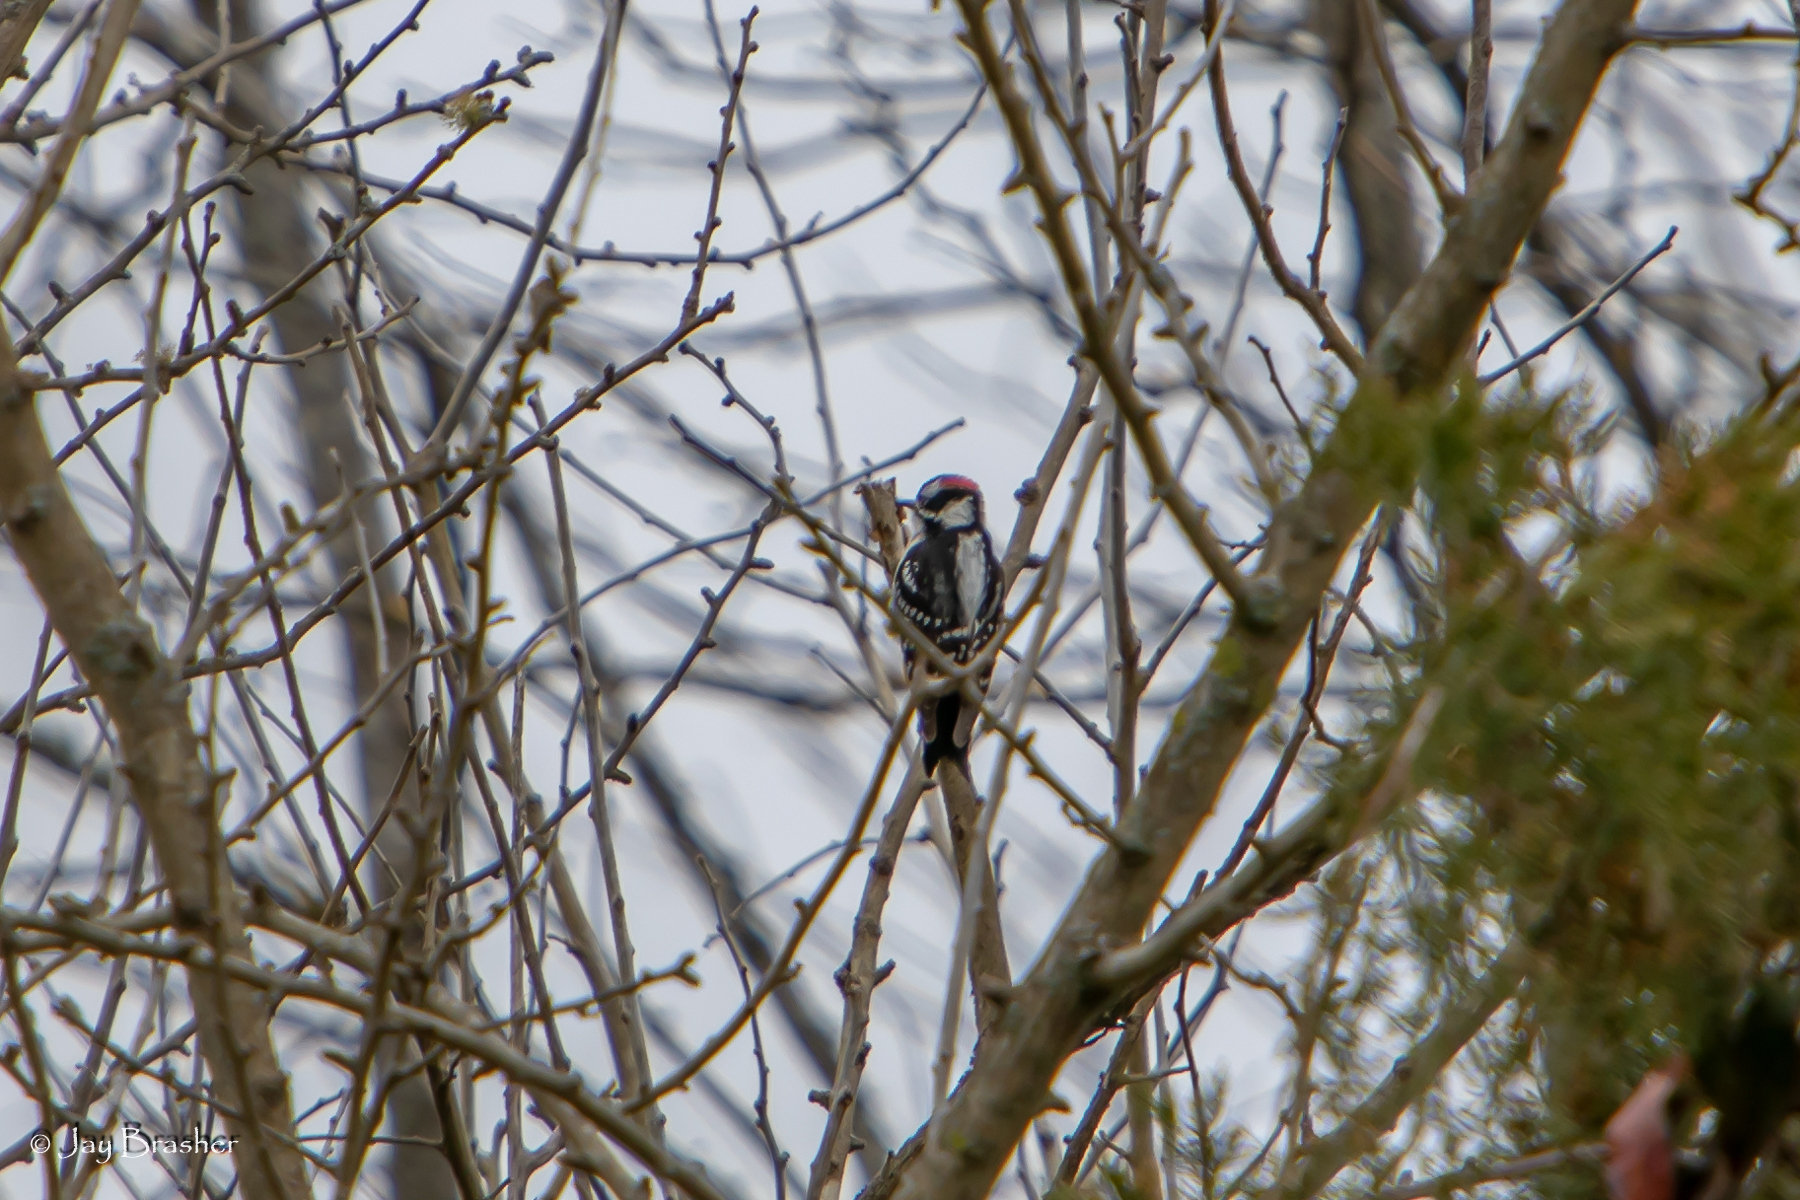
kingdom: Animalia
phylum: Chordata
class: Aves
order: Piciformes
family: Picidae
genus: Dryobates
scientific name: Dryobates pubescens
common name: Downy woodpecker
